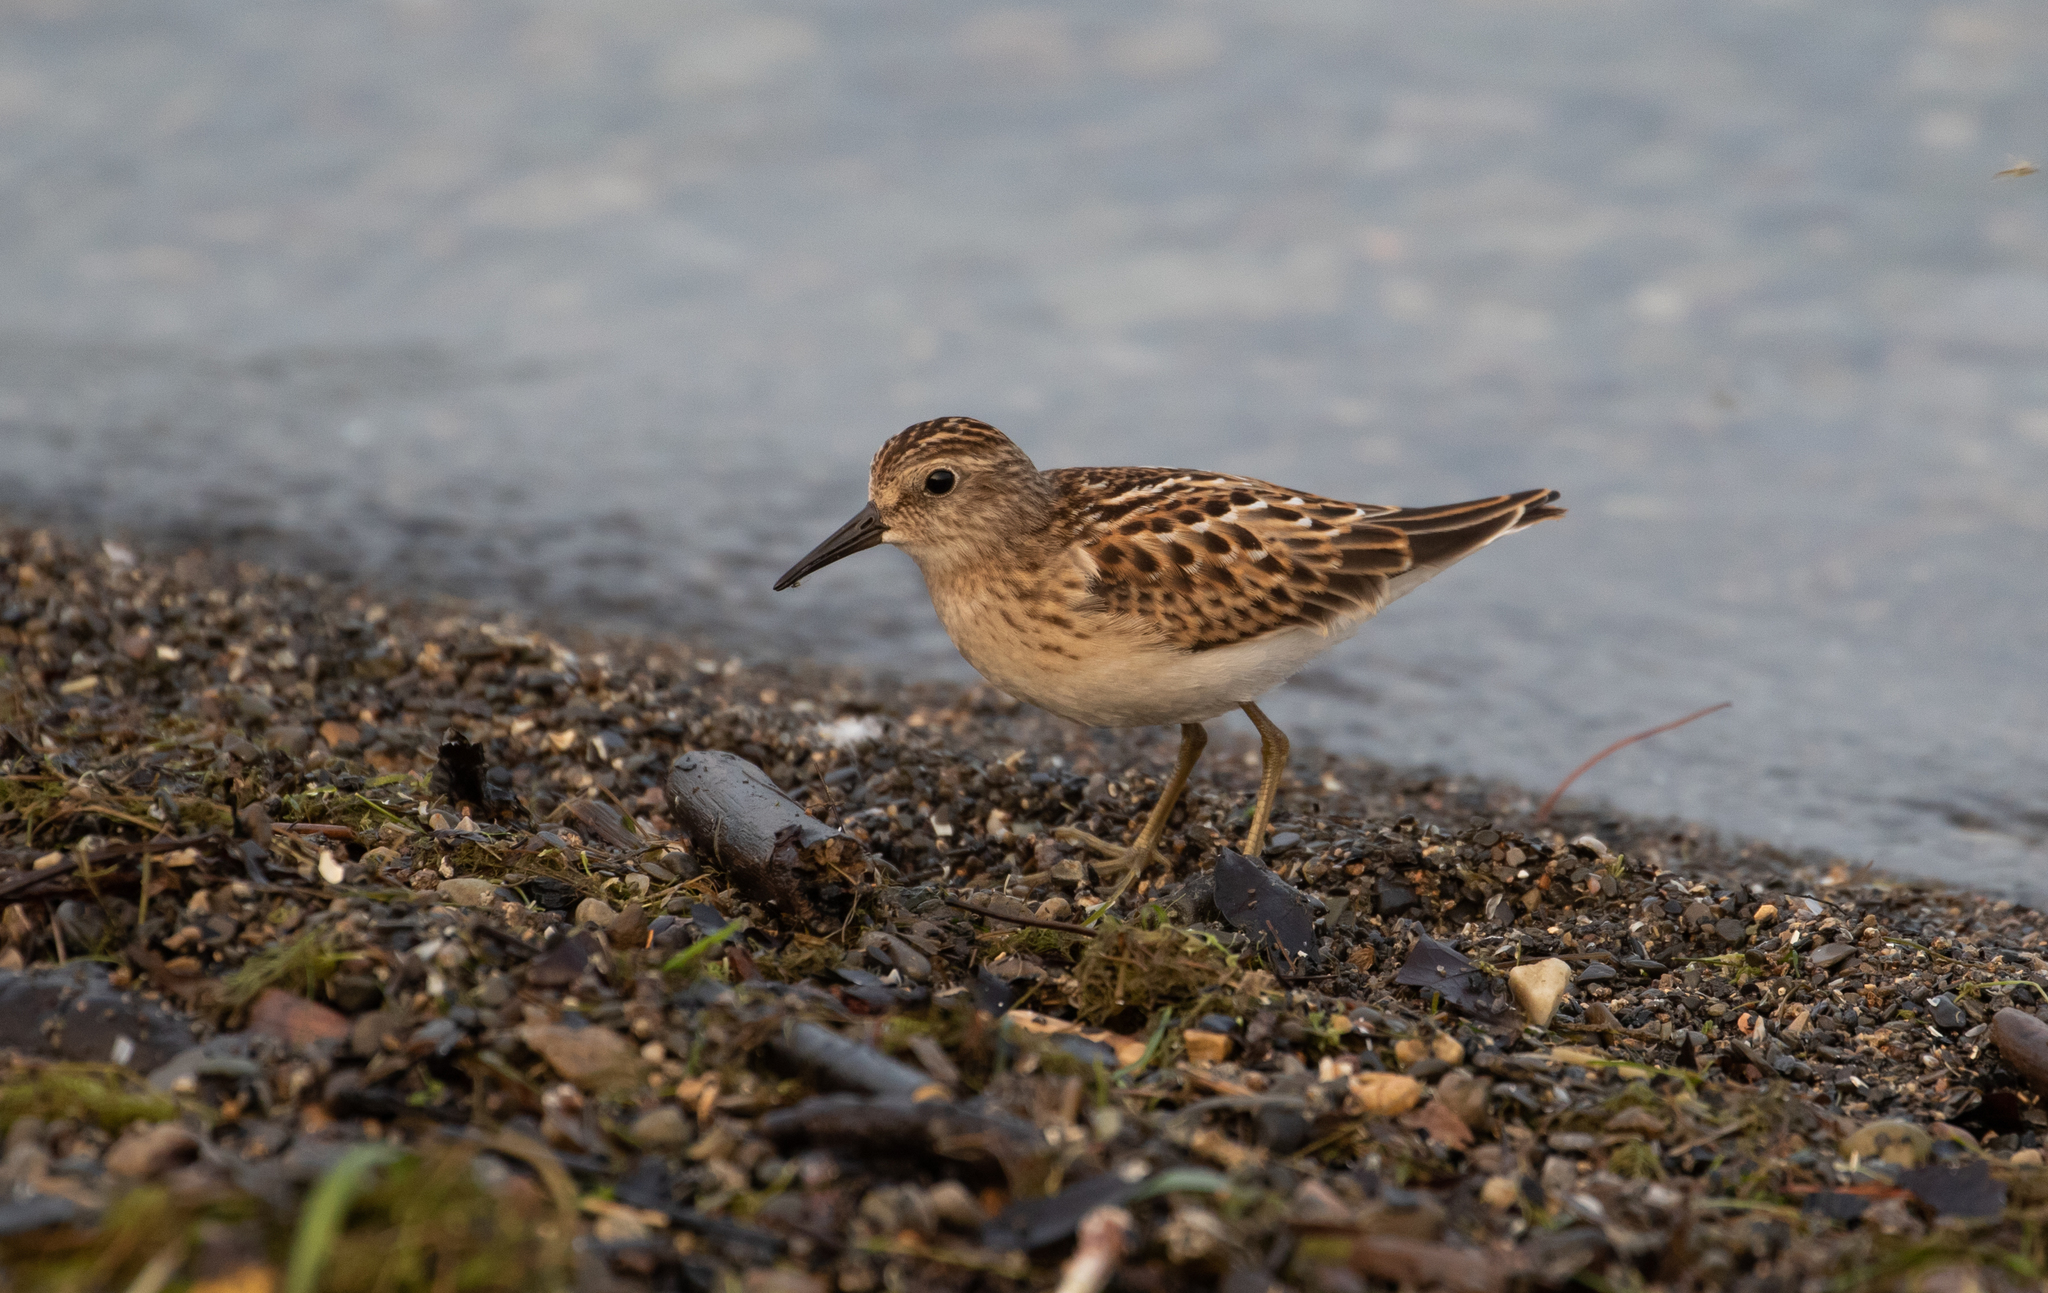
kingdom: Animalia
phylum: Chordata
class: Aves
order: Charadriiformes
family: Scolopacidae
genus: Calidris
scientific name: Calidris minutilla
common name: Least sandpiper
